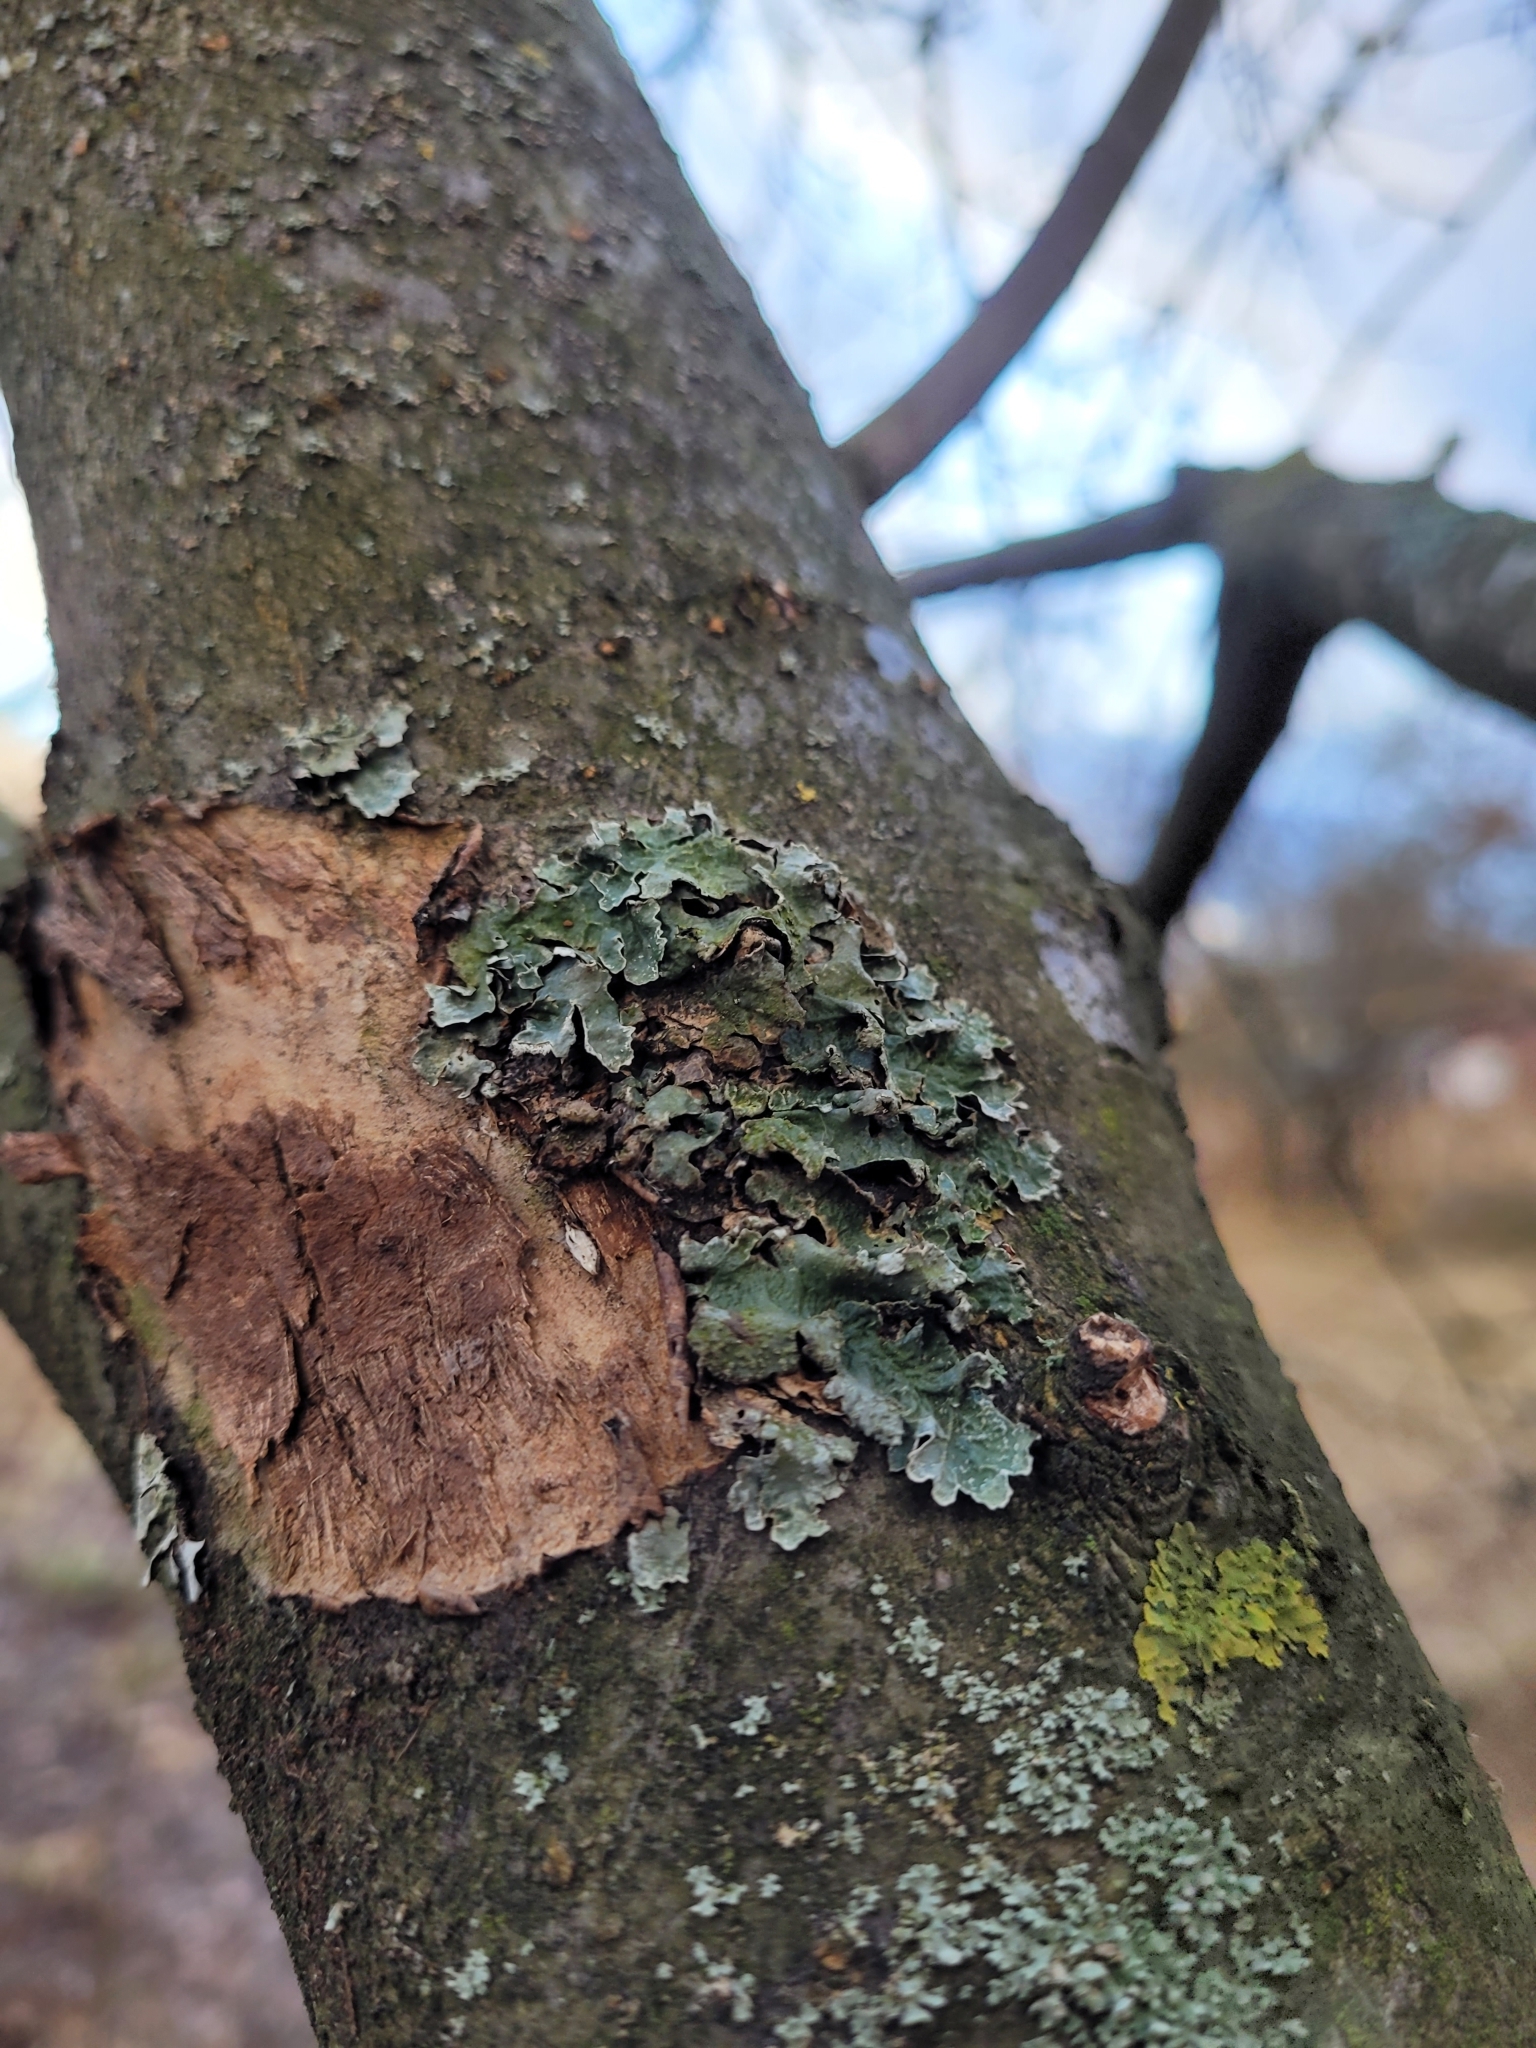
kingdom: Fungi
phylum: Ascomycota
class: Lecanoromycetes
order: Lecanorales
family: Parmeliaceae
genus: Parmelia
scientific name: Parmelia sulcata
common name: Netted shield lichen
